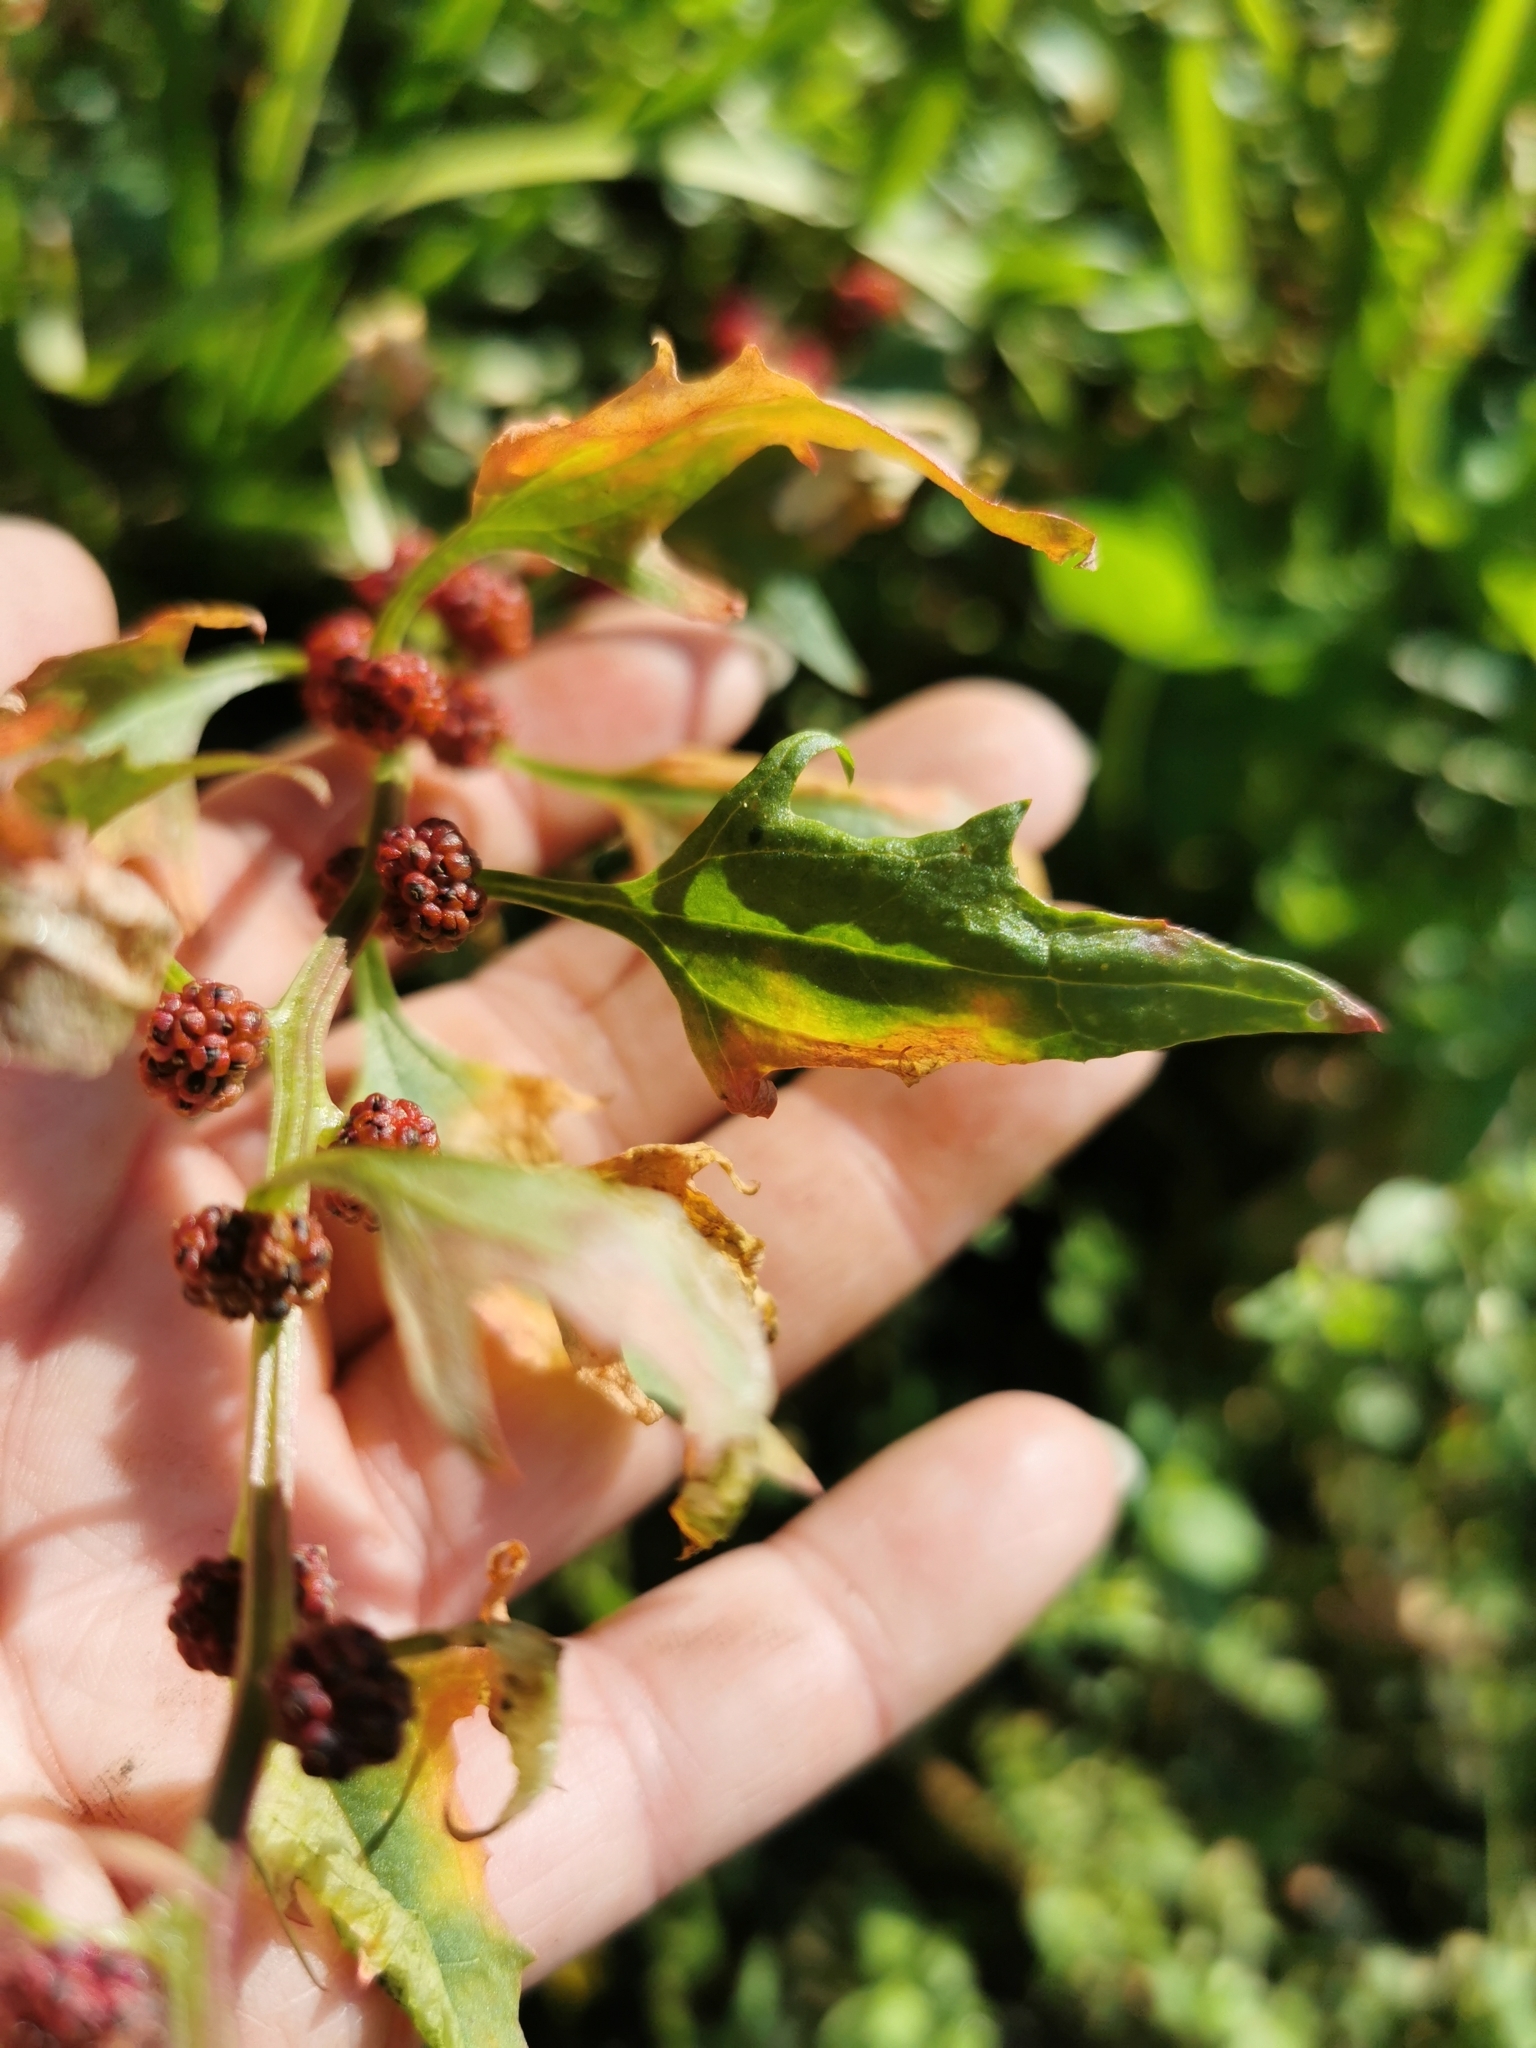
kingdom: Plantae
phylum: Tracheophyta
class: Magnoliopsida
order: Caryophyllales
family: Amaranthaceae
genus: Blitum
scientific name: Blitum virgatum
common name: Strawberry goosefoot
